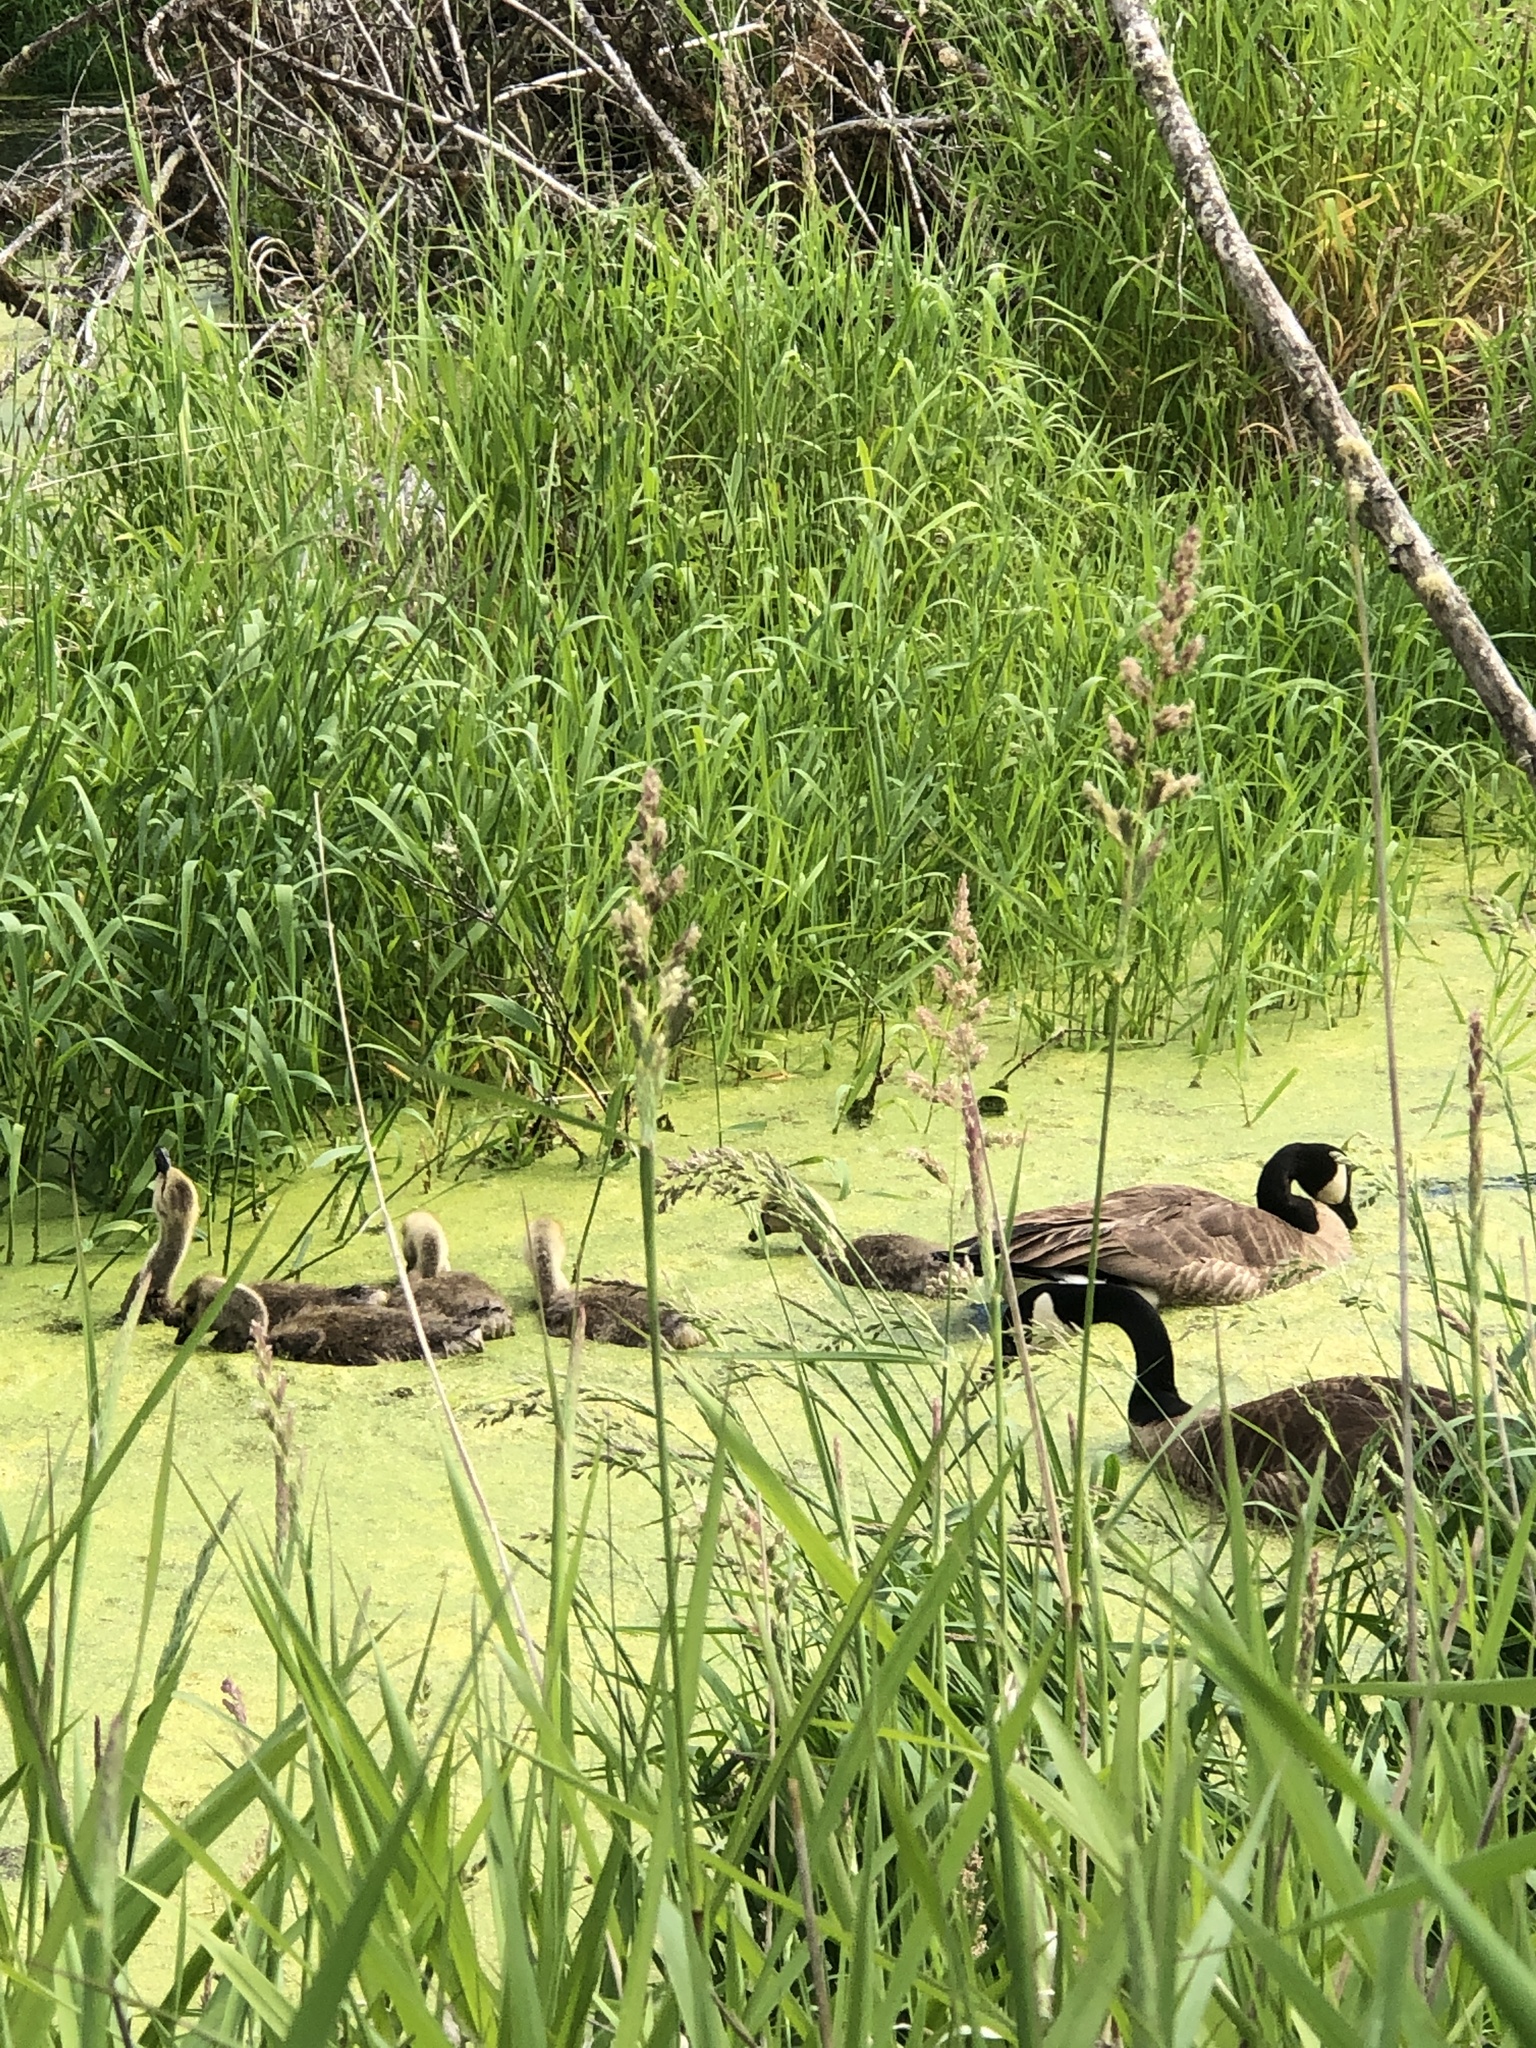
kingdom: Animalia
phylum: Chordata
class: Aves
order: Anseriformes
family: Anatidae
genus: Branta
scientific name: Branta canadensis
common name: Canada goose
